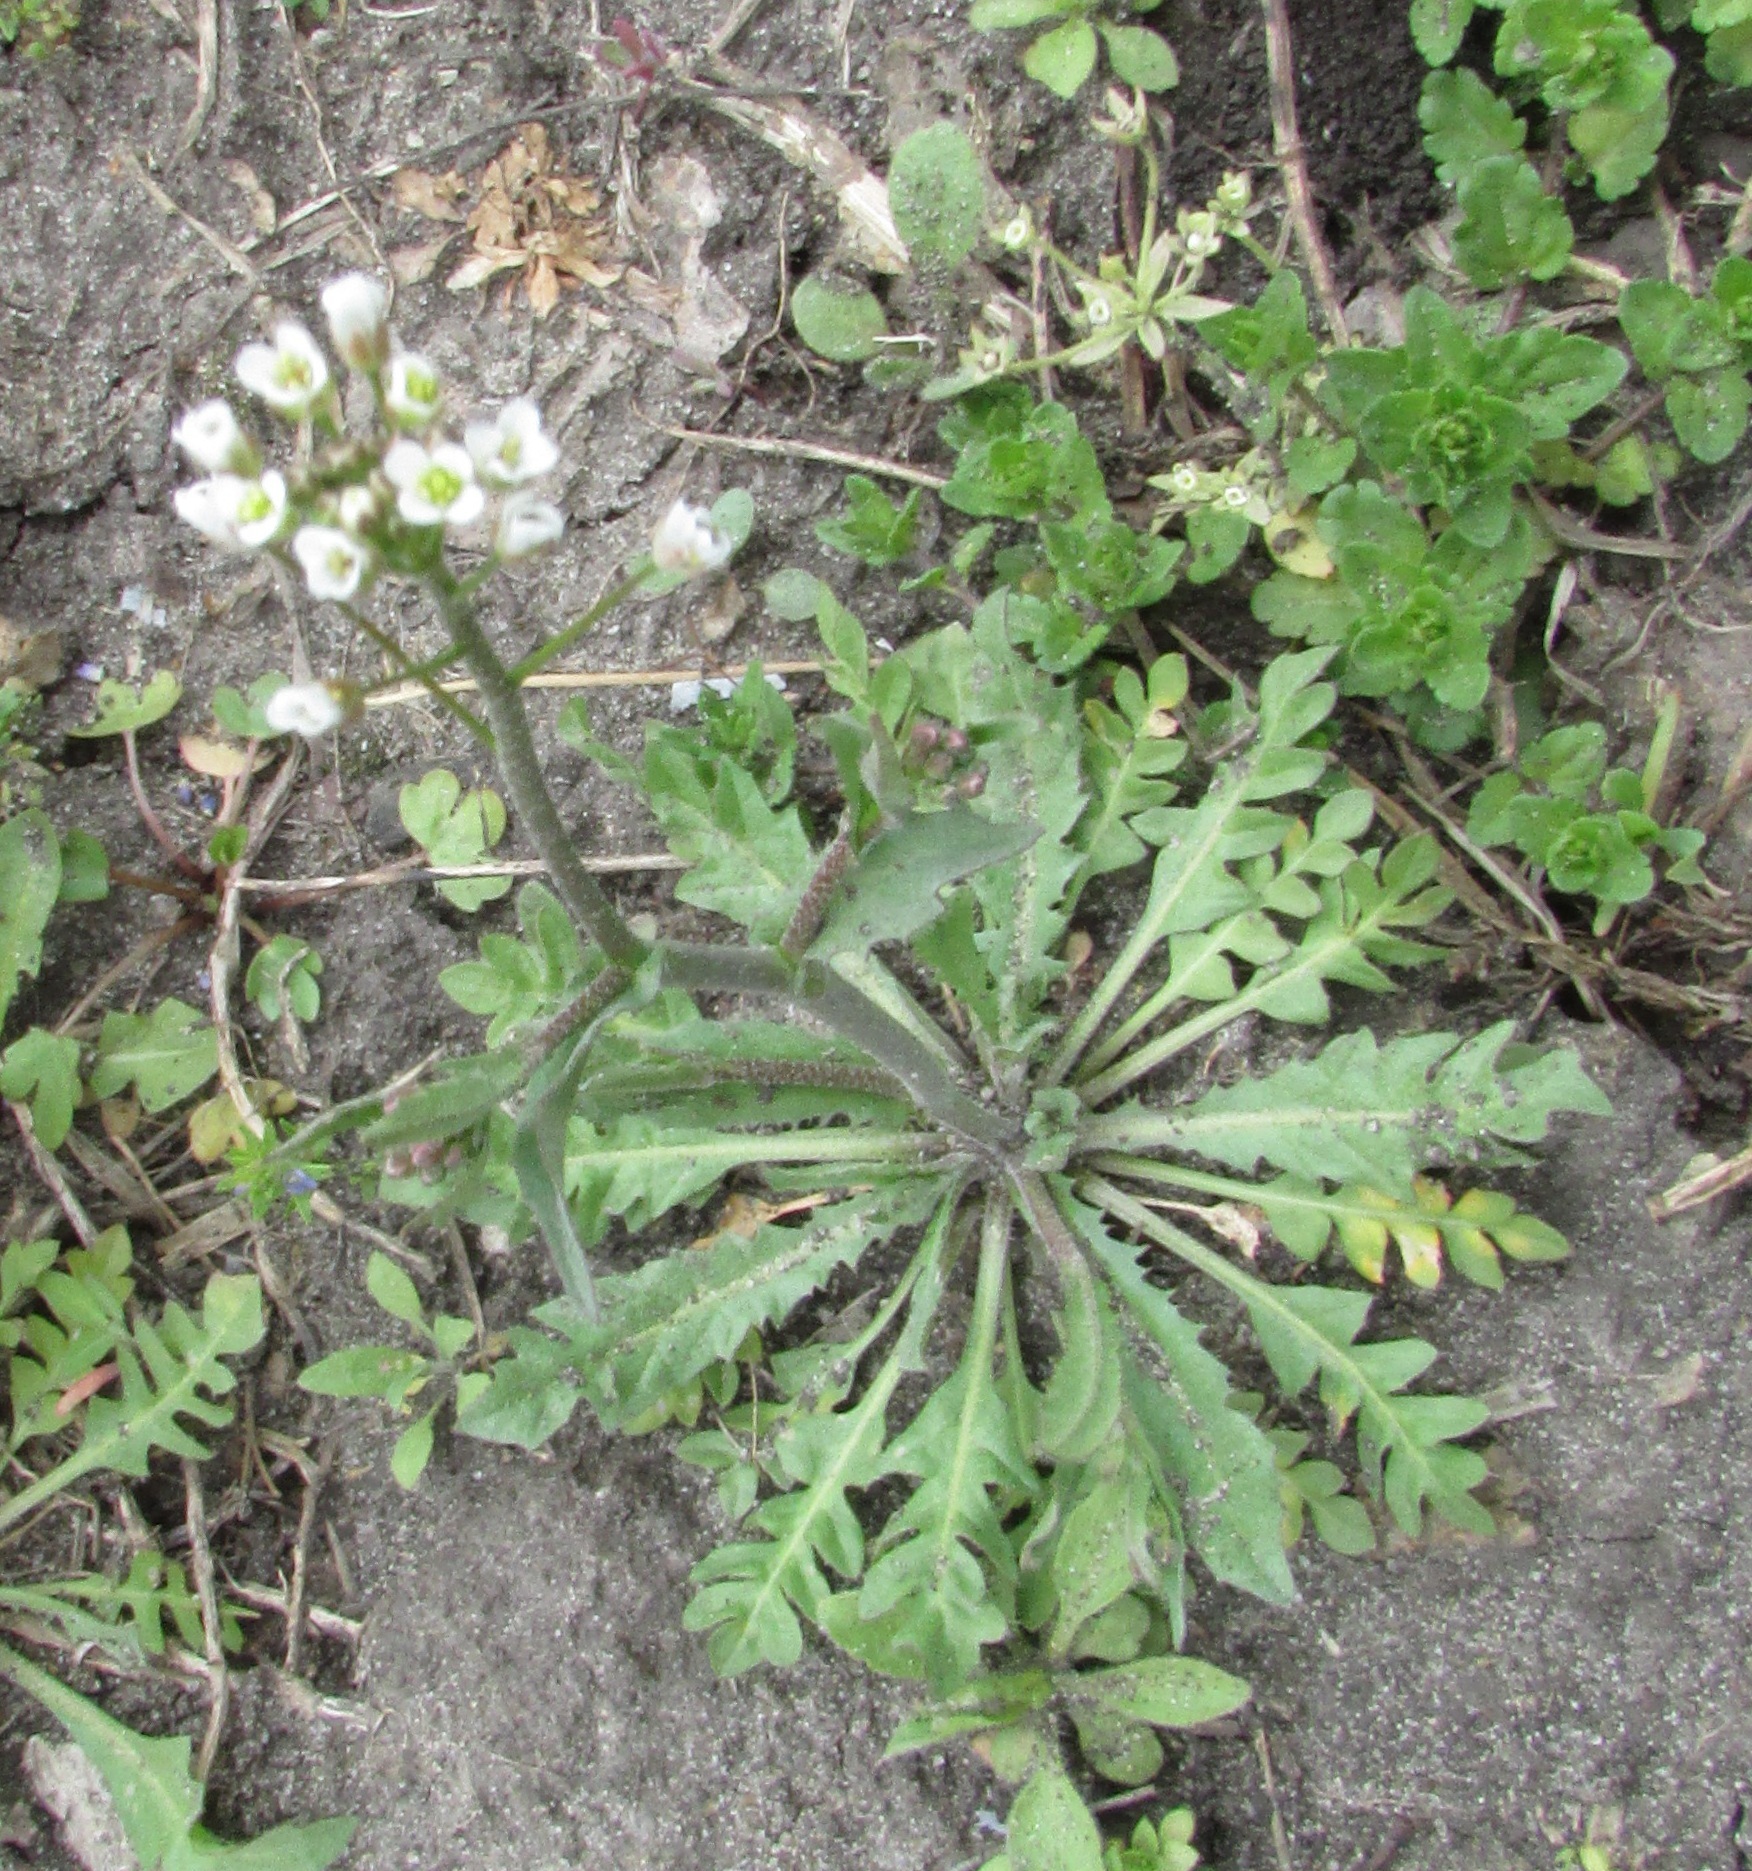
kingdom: Plantae
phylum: Tracheophyta
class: Magnoliopsida
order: Brassicales
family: Brassicaceae
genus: Capsella
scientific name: Capsella bursa-pastoris
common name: Shepherd's purse
